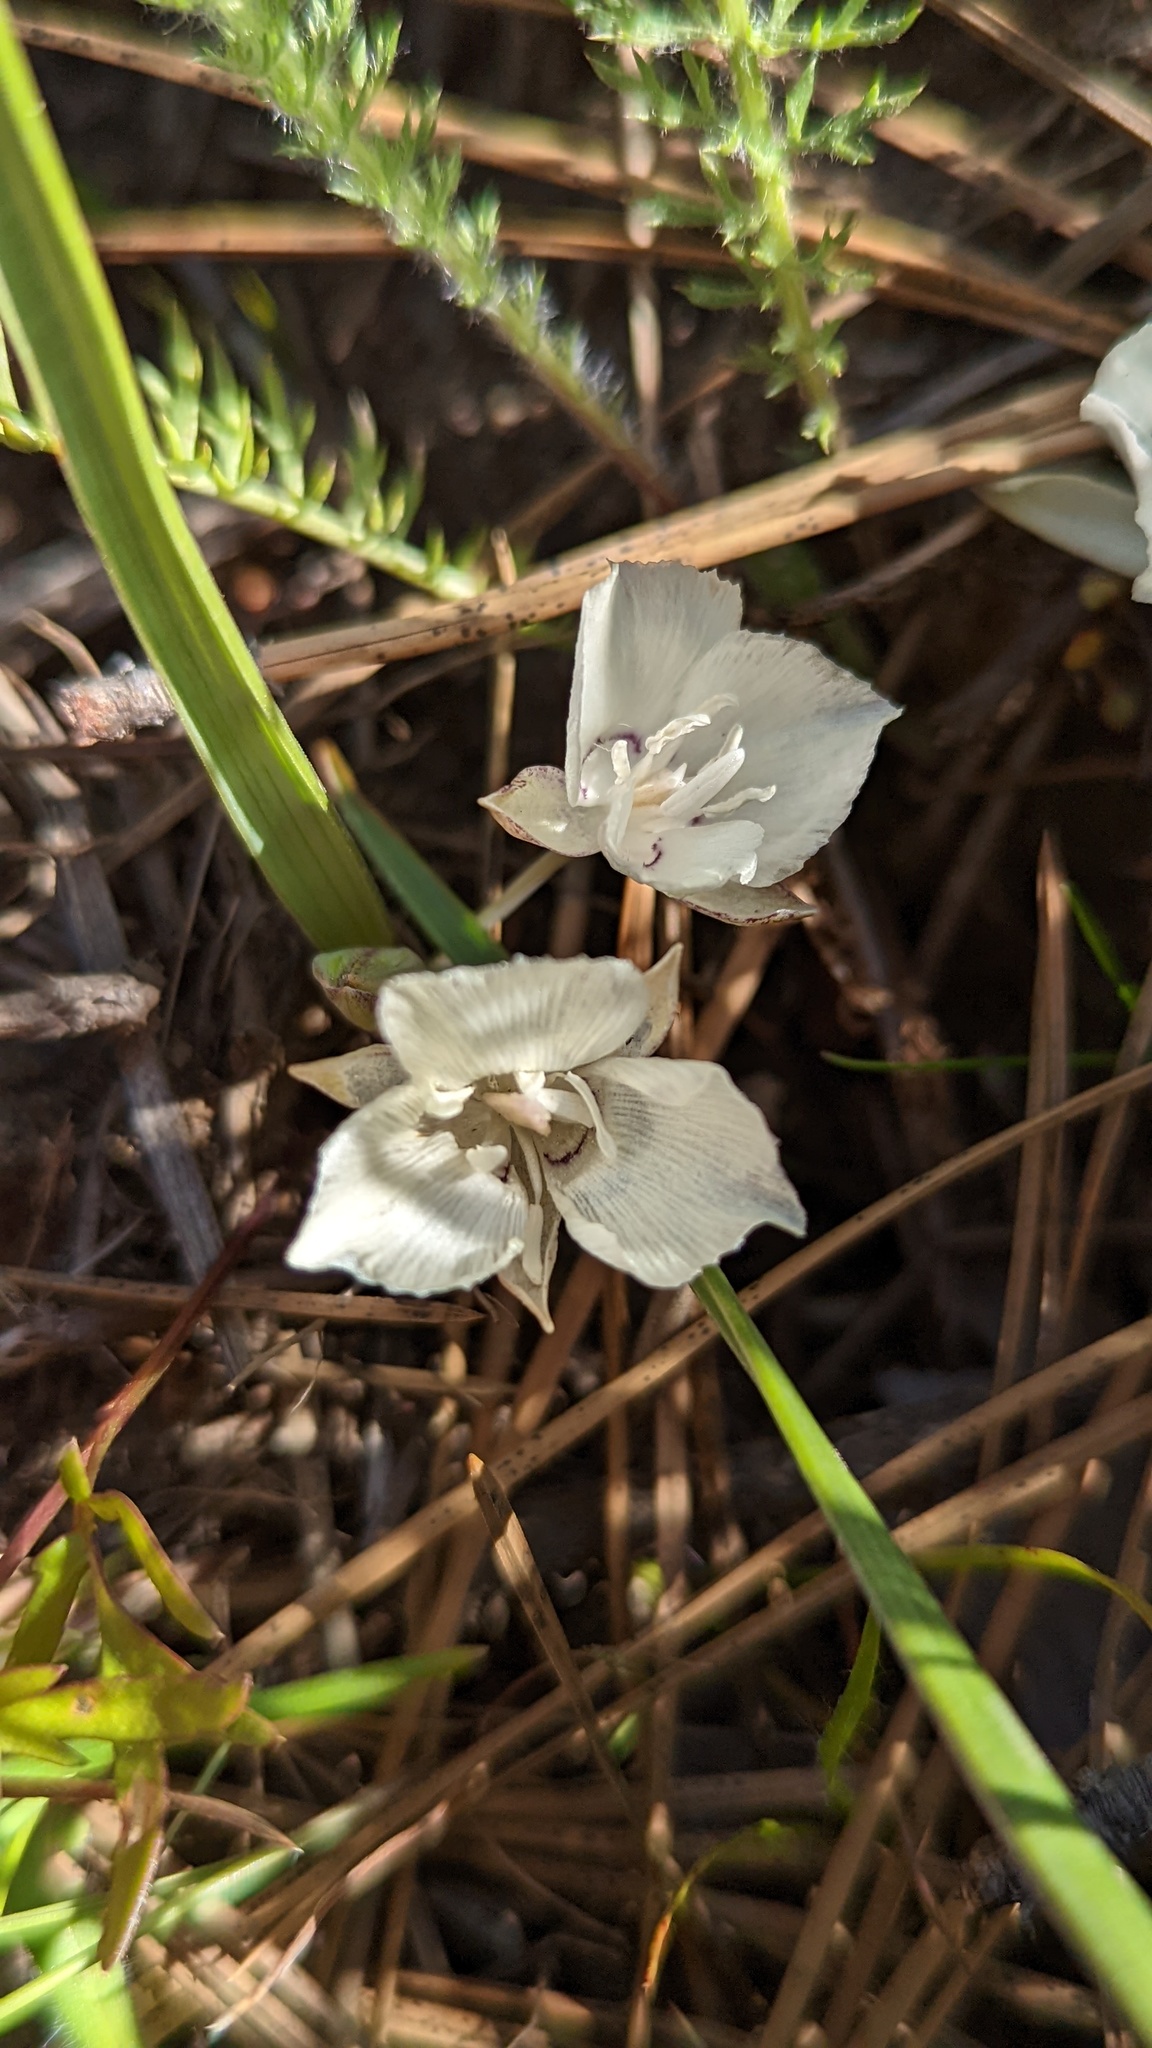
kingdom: Plantae
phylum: Tracheophyta
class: Liliopsida
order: Liliales
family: Liliaceae
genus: Calochortus
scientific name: Calochortus minimus
